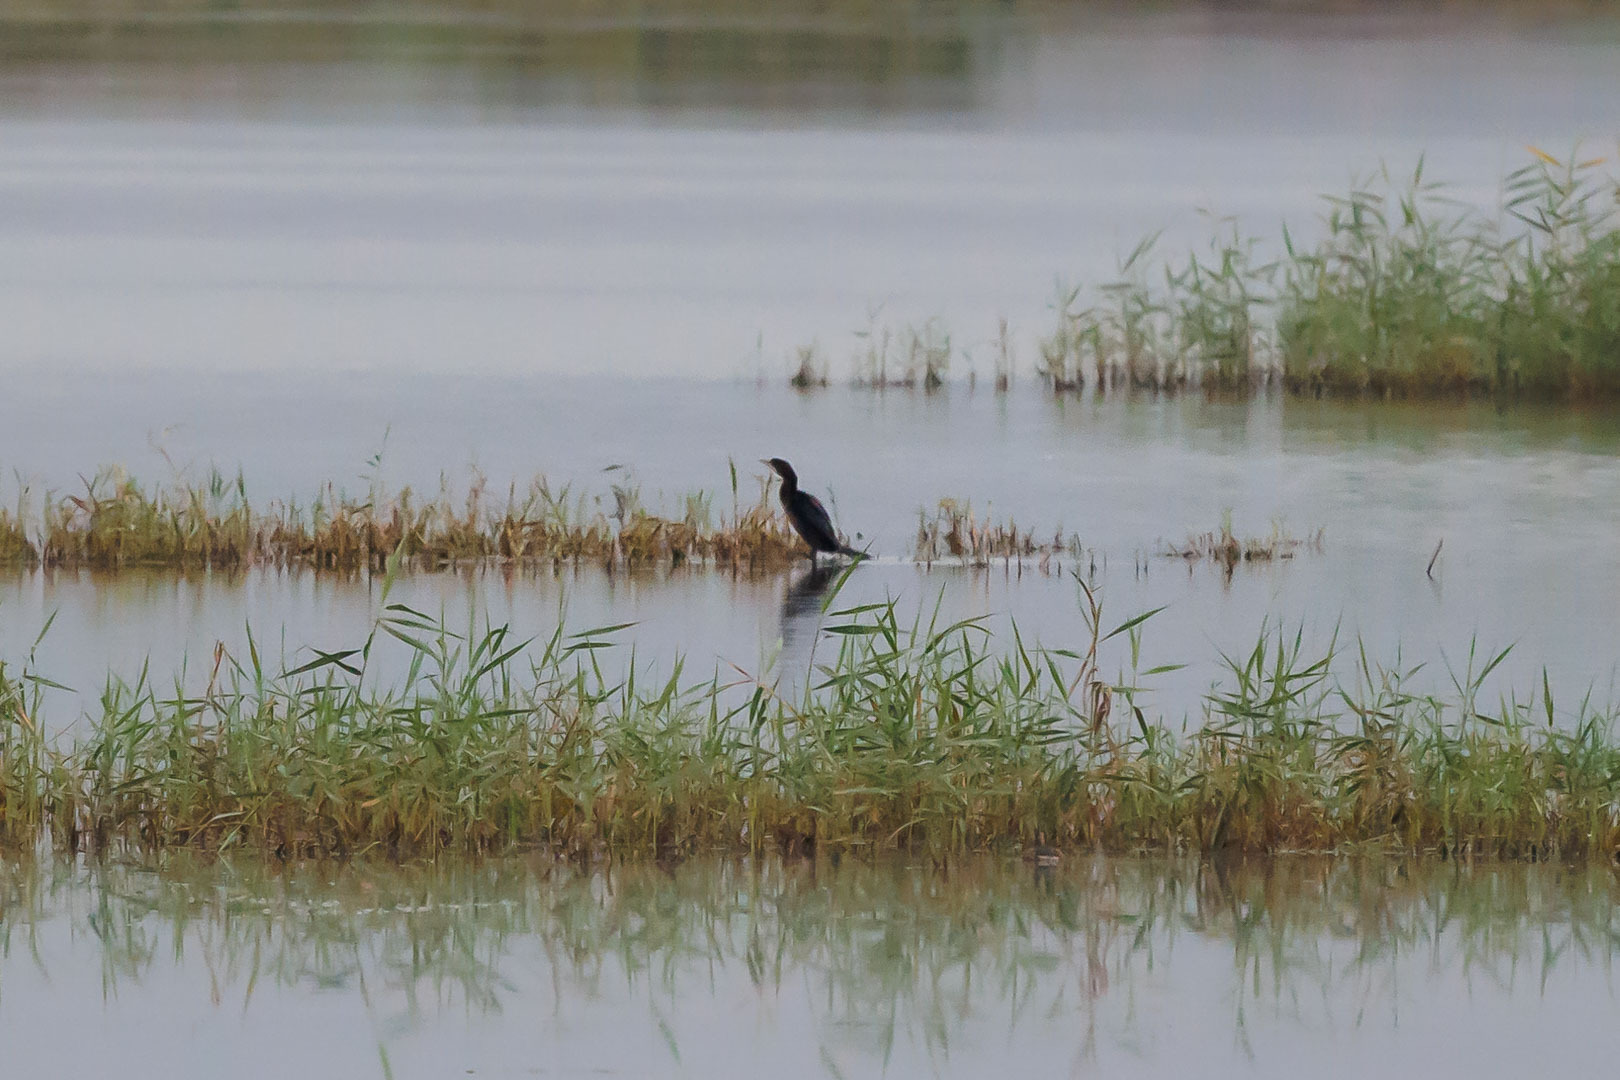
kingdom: Animalia
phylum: Chordata
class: Aves
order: Suliformes
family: Phalacrocoracidae
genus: Microcarbo
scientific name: Microcarbo pygmaeus
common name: Pygmy cormorant
